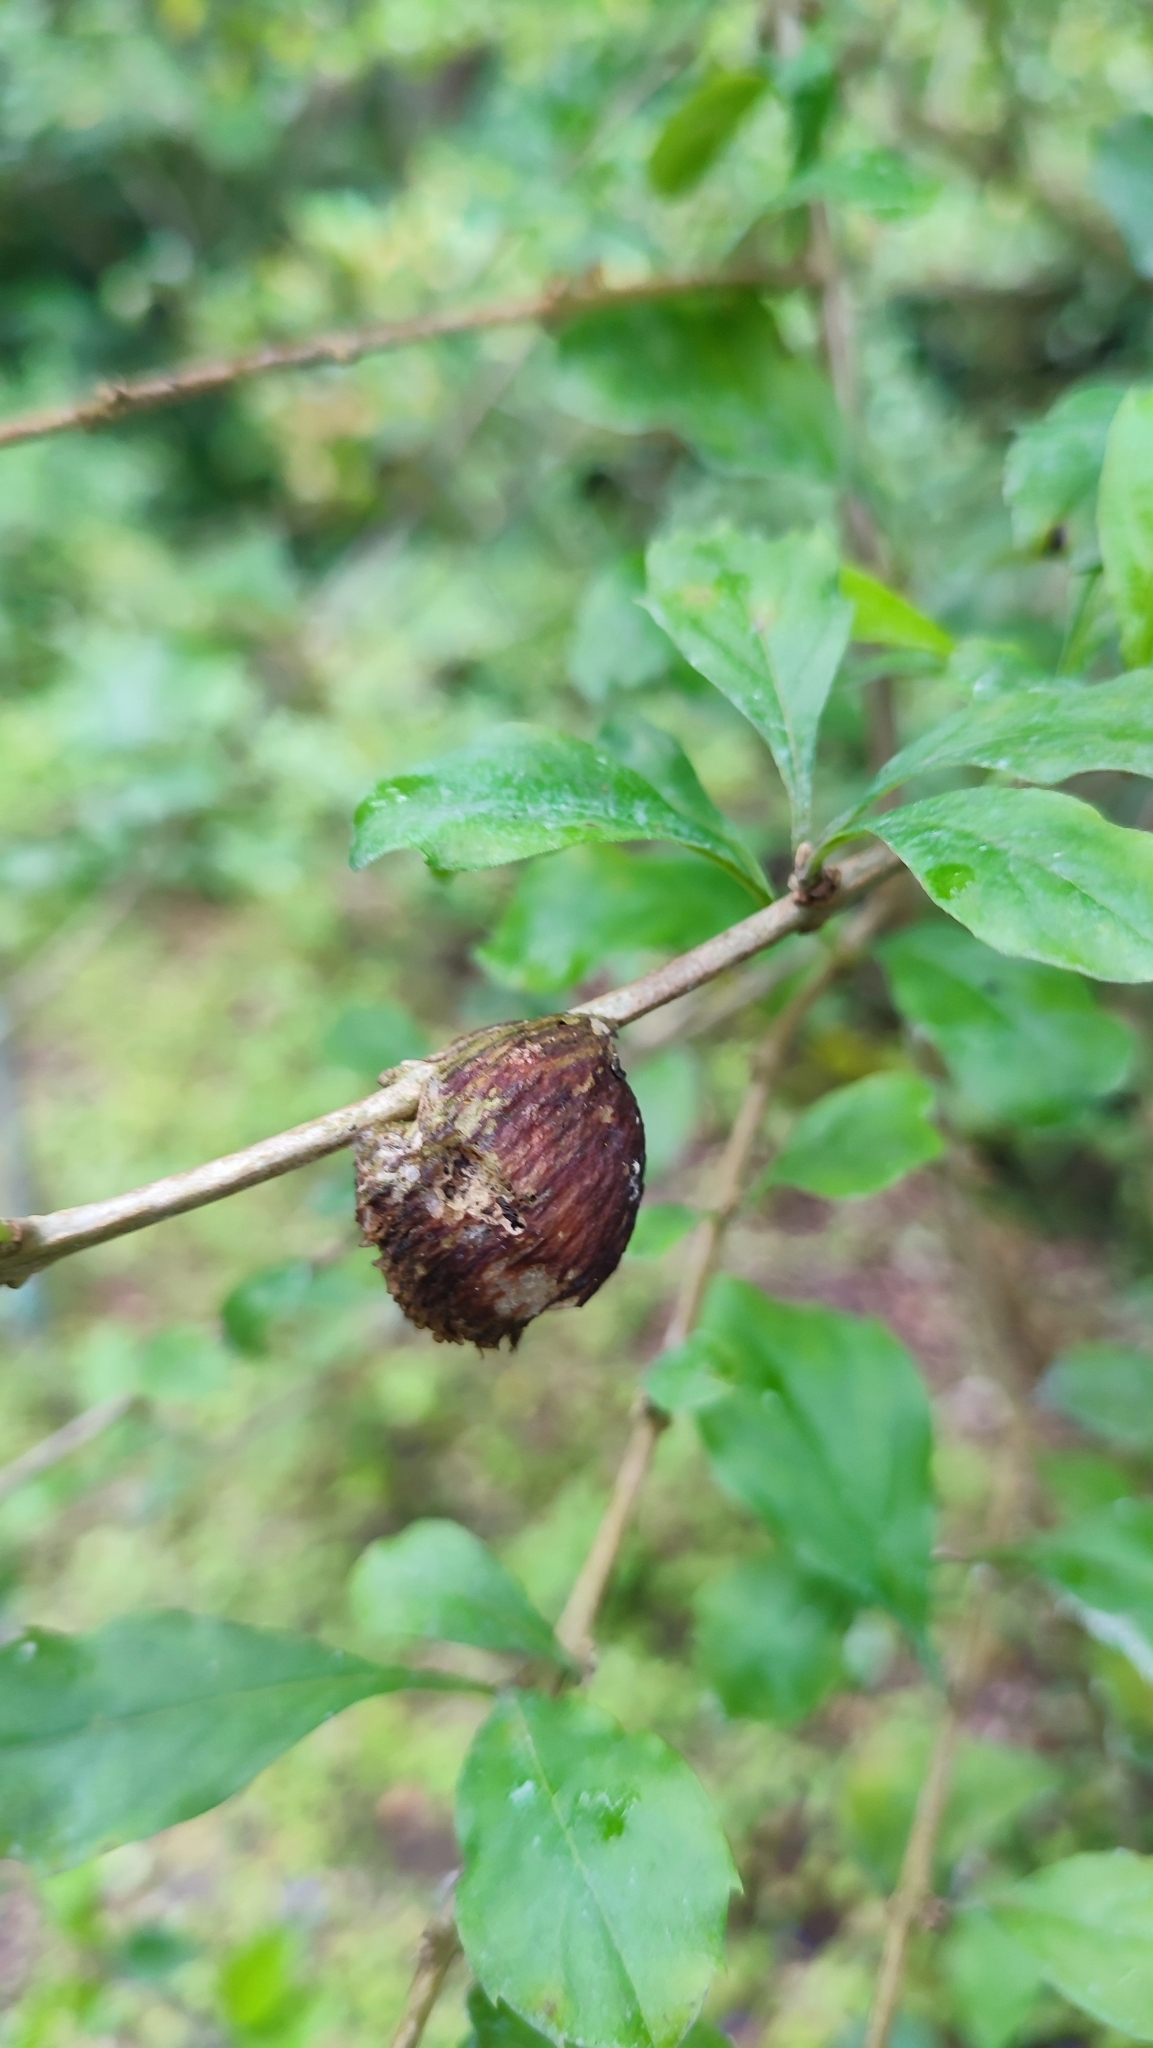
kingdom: Animalia
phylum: Arthropoda
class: Insecta
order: Mantodea
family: Mantidae
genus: Titanodula
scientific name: Titanodula formosana
